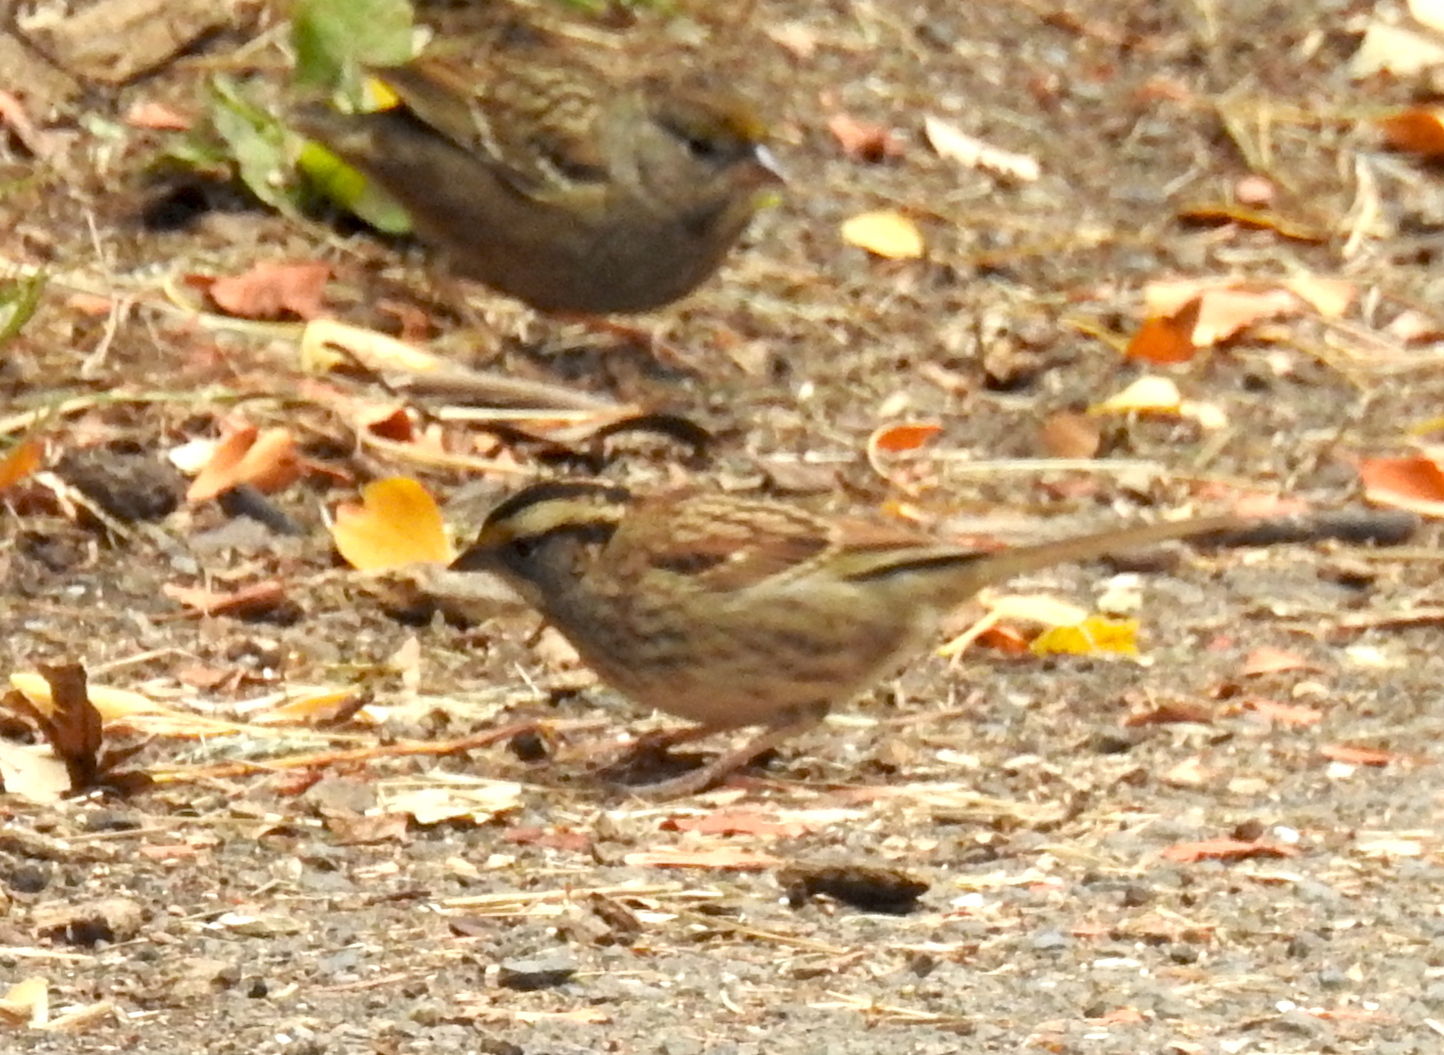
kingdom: Animalia
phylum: Chordata
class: Aves
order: Passeriformes
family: Passerellidae
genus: Zonotrichia
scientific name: Zonotrichia albicollis
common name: White-throated sparrow
